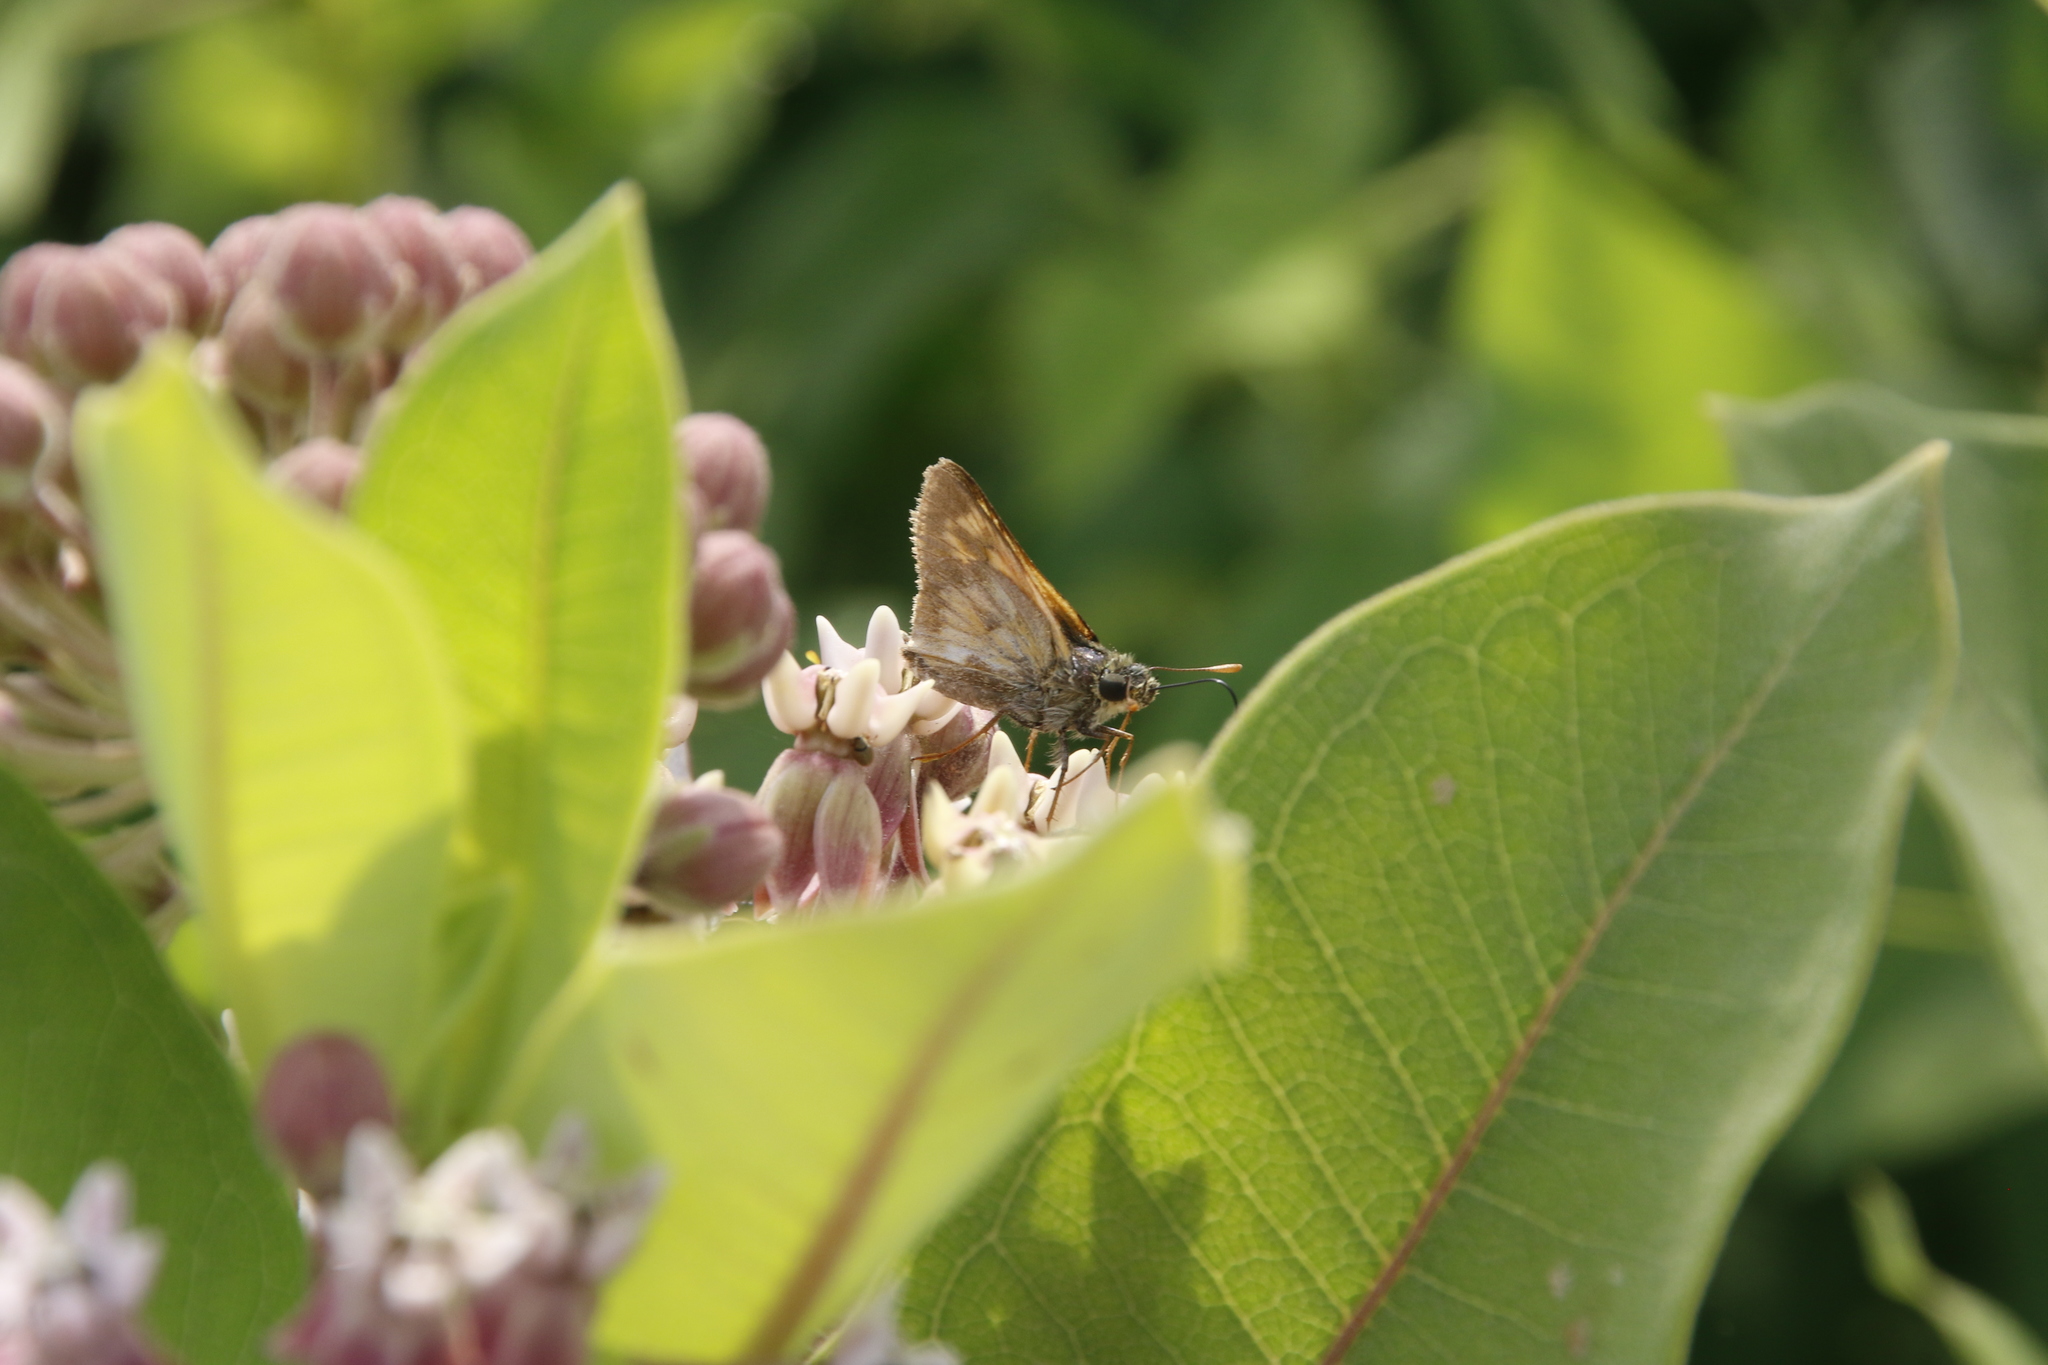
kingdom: Animalia
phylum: Arthropoda
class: Insecta
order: Lepidoptera
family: Hesperiidae
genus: Polites
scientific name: Polites mystic
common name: Long dash
